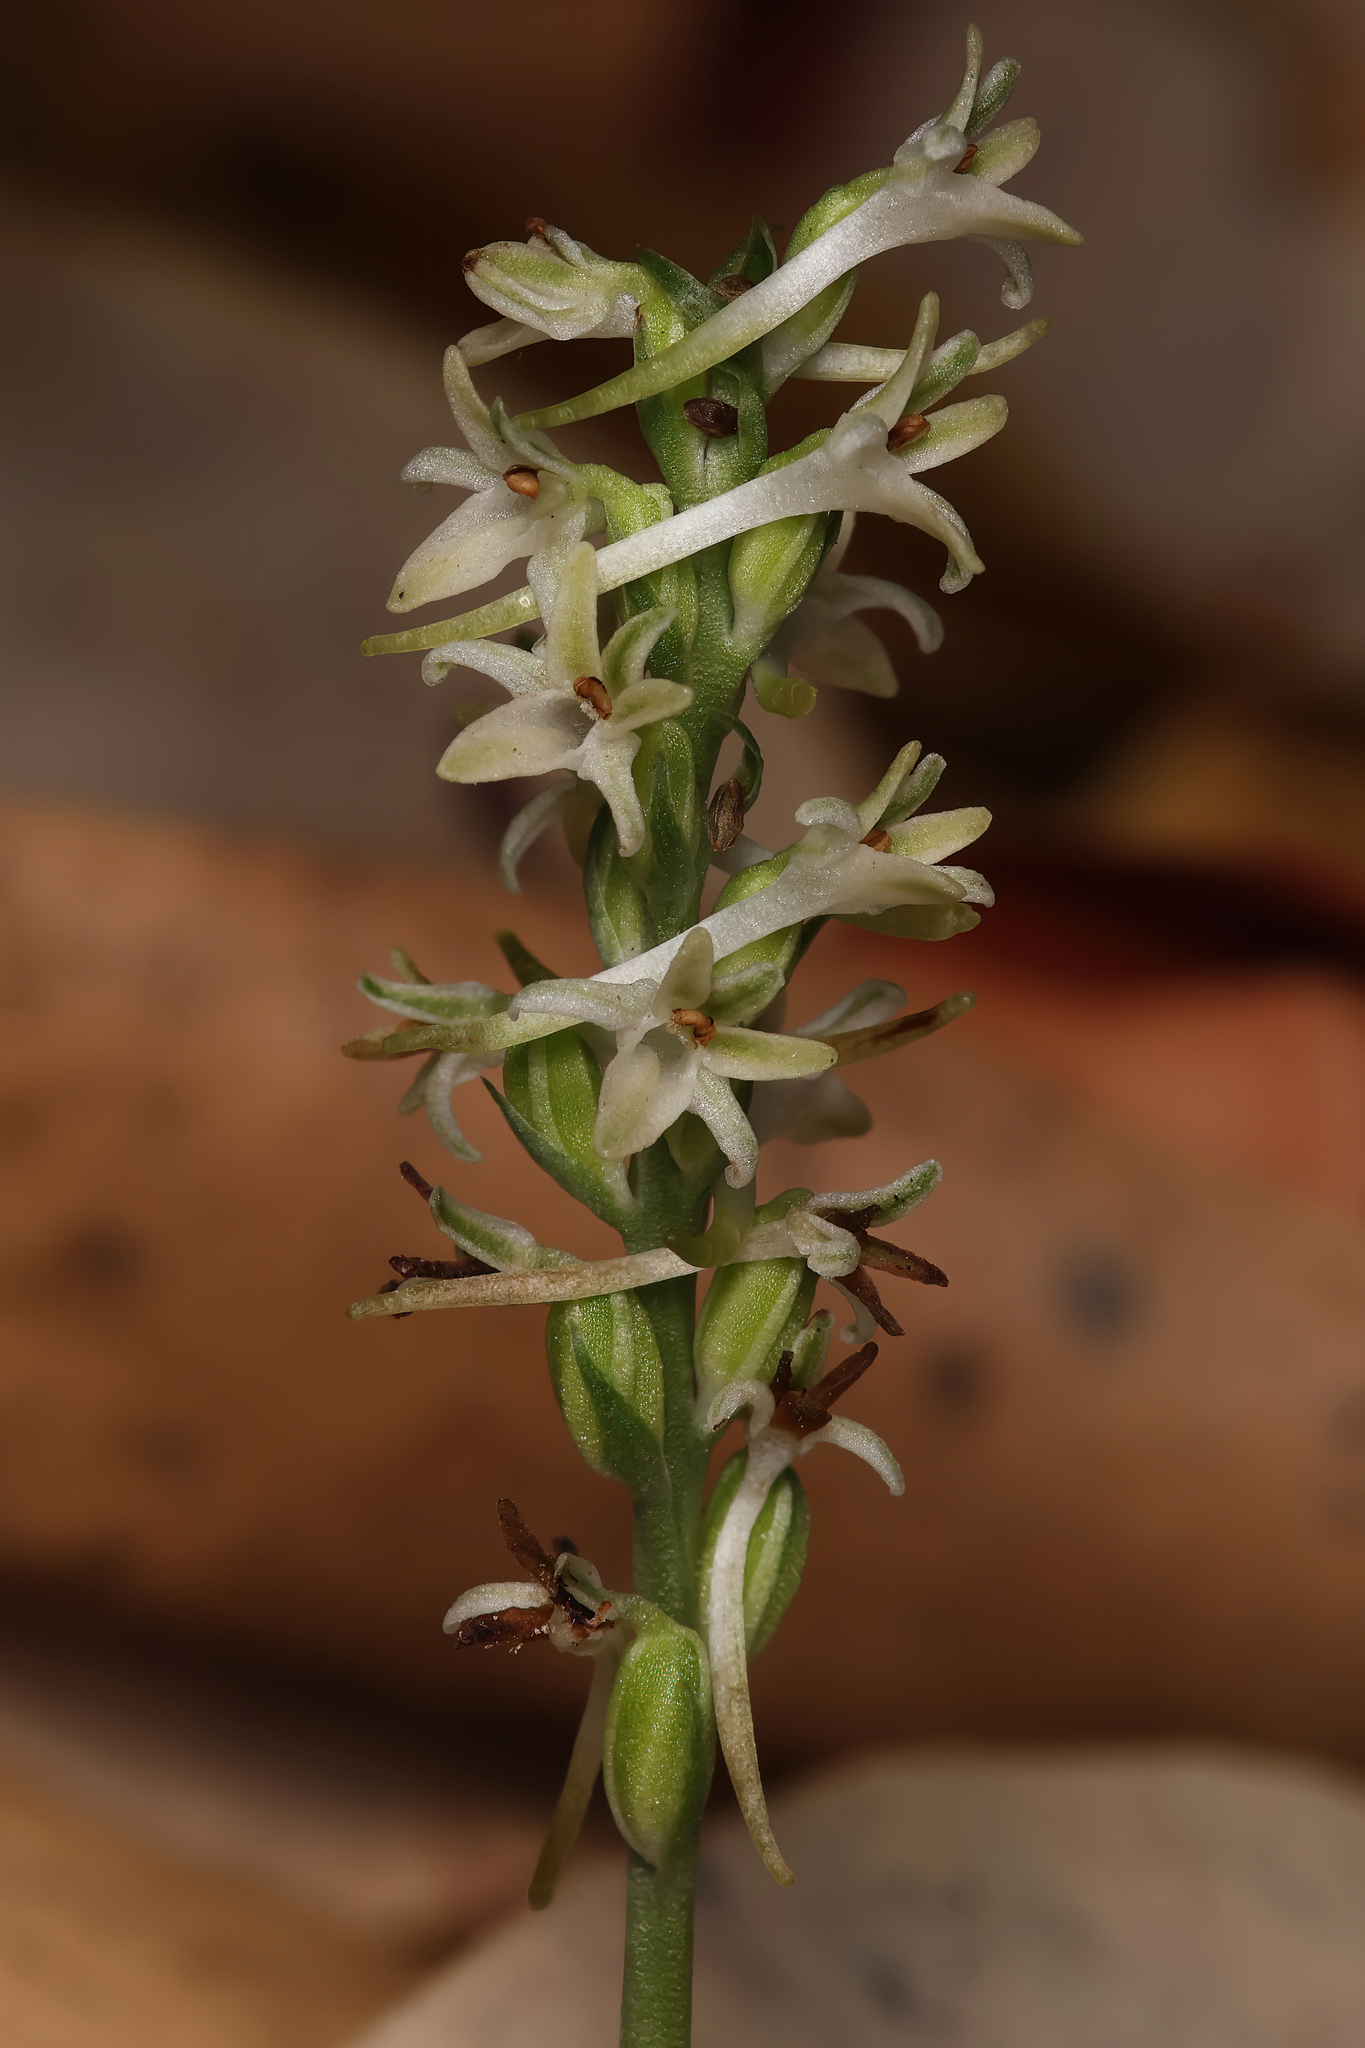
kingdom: Plantae
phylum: Tracheophyta
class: Liliopsida
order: Asparagales
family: Orchidaceae
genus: Platanthera
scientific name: Platanthera transversa
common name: Royal rein orchid
